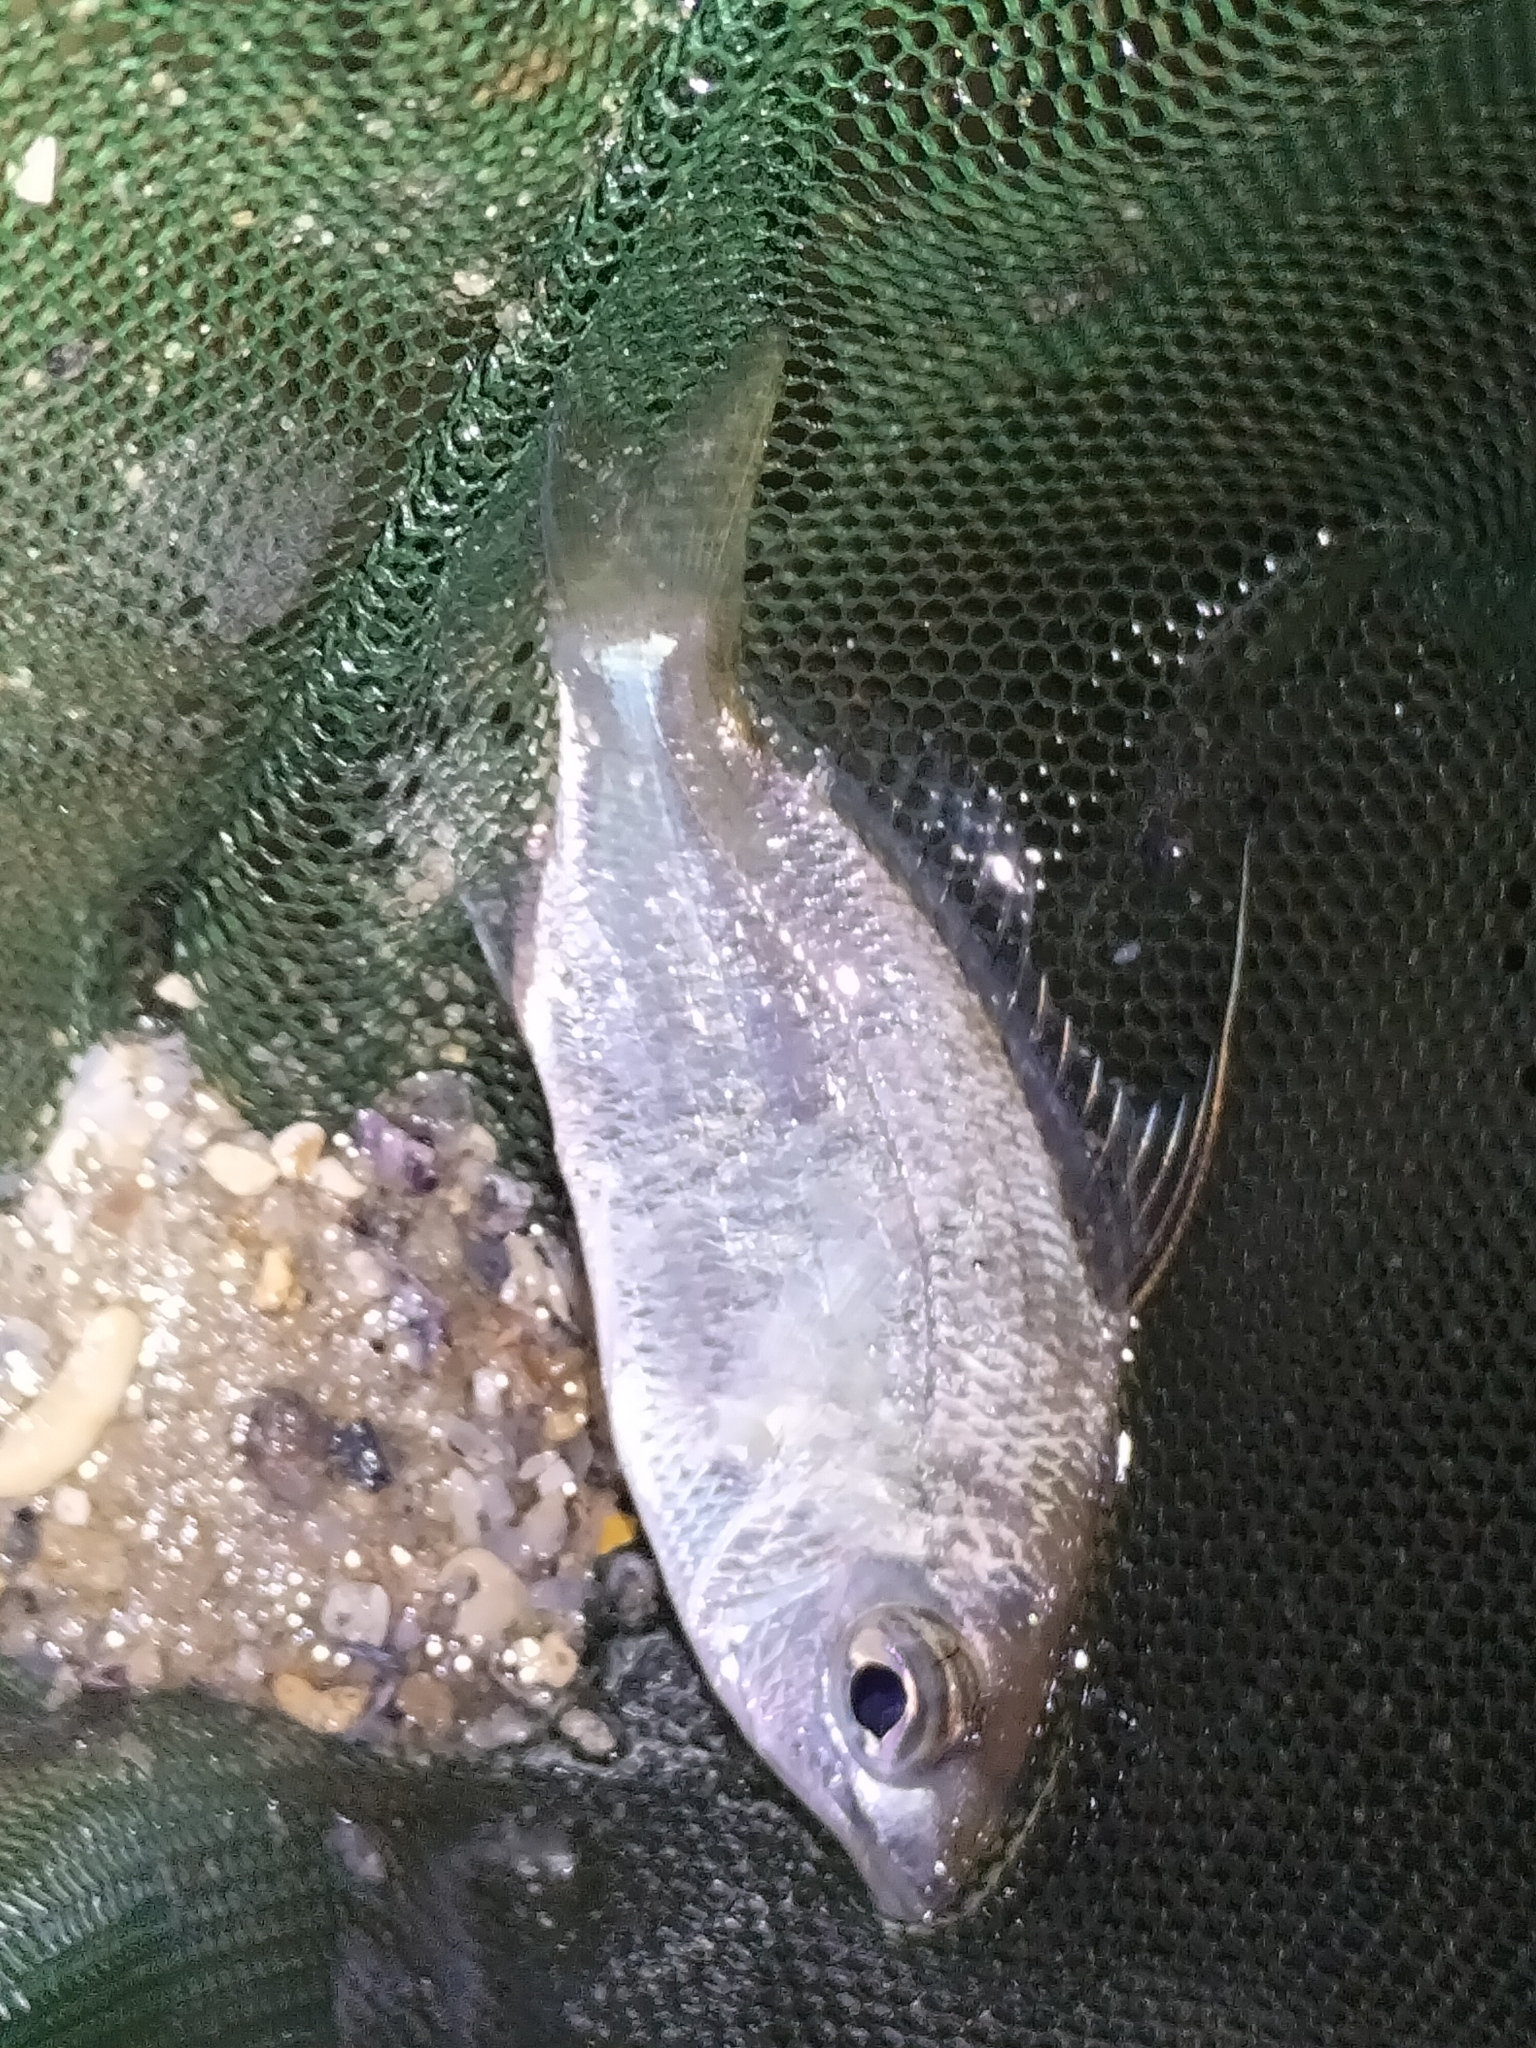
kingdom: Animalia
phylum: Chordata
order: Perciformes
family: Gerreidae
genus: Gerres
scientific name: Gerres filamentosus
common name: Whipfin silverbiddy
